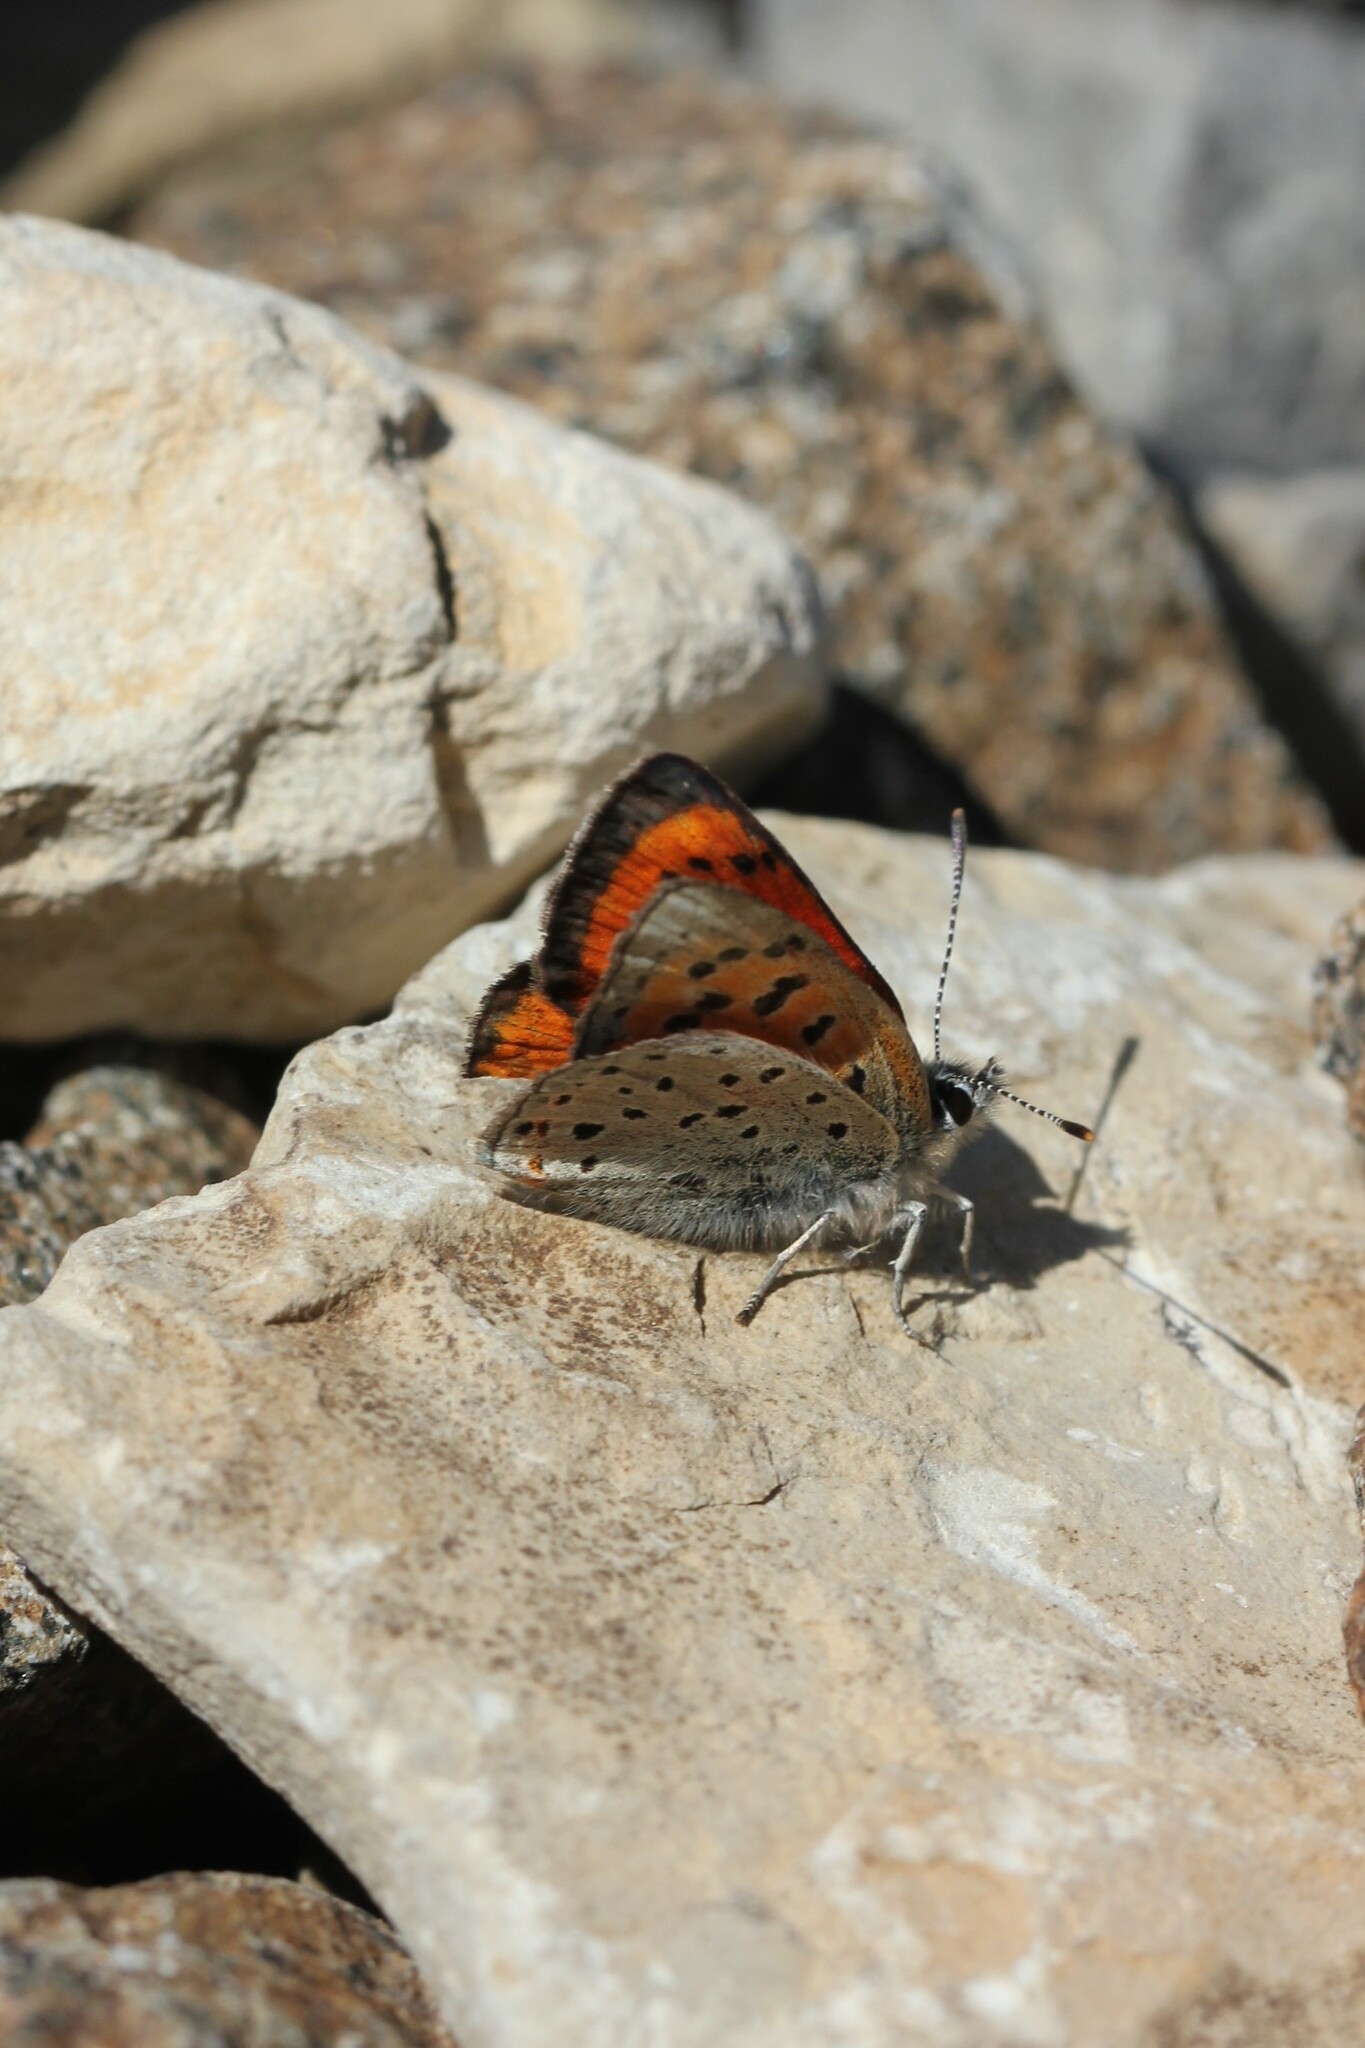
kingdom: Animalia
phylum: Arthropoda
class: Insecta
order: Lepidoptera
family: Lycaenidae
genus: Lycaena
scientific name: Lycaena cupreus
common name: Lustrous copper
